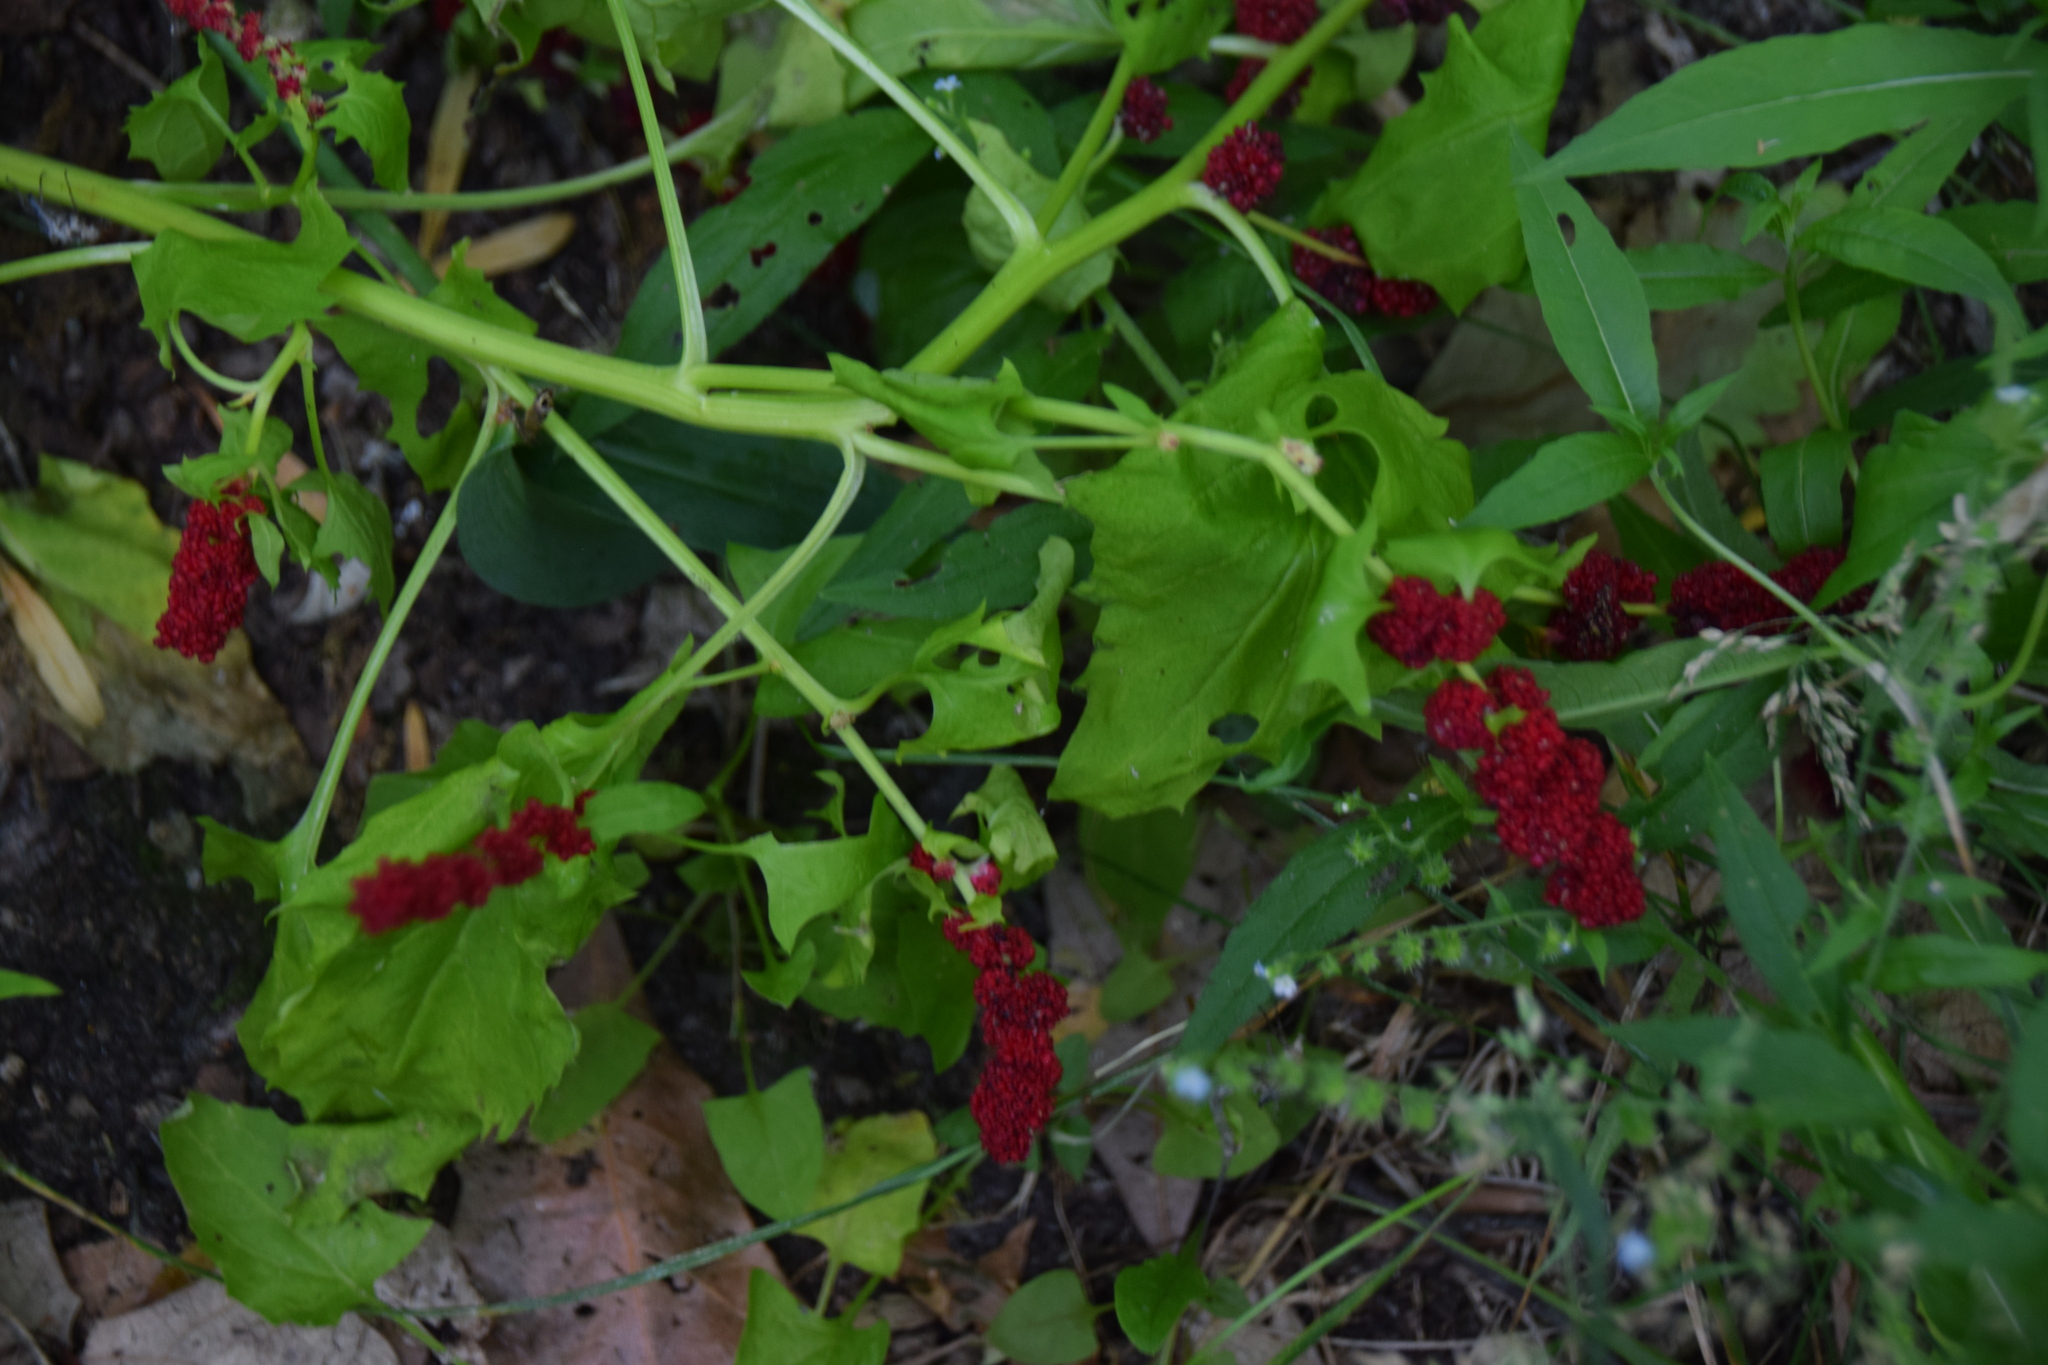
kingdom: Plantae
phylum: Tracheophyta
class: Magnoliopsida
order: Caryophyllales
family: Amaranthaceae
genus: Blitum
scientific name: Blitum capitatum
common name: Strawberry-blight
